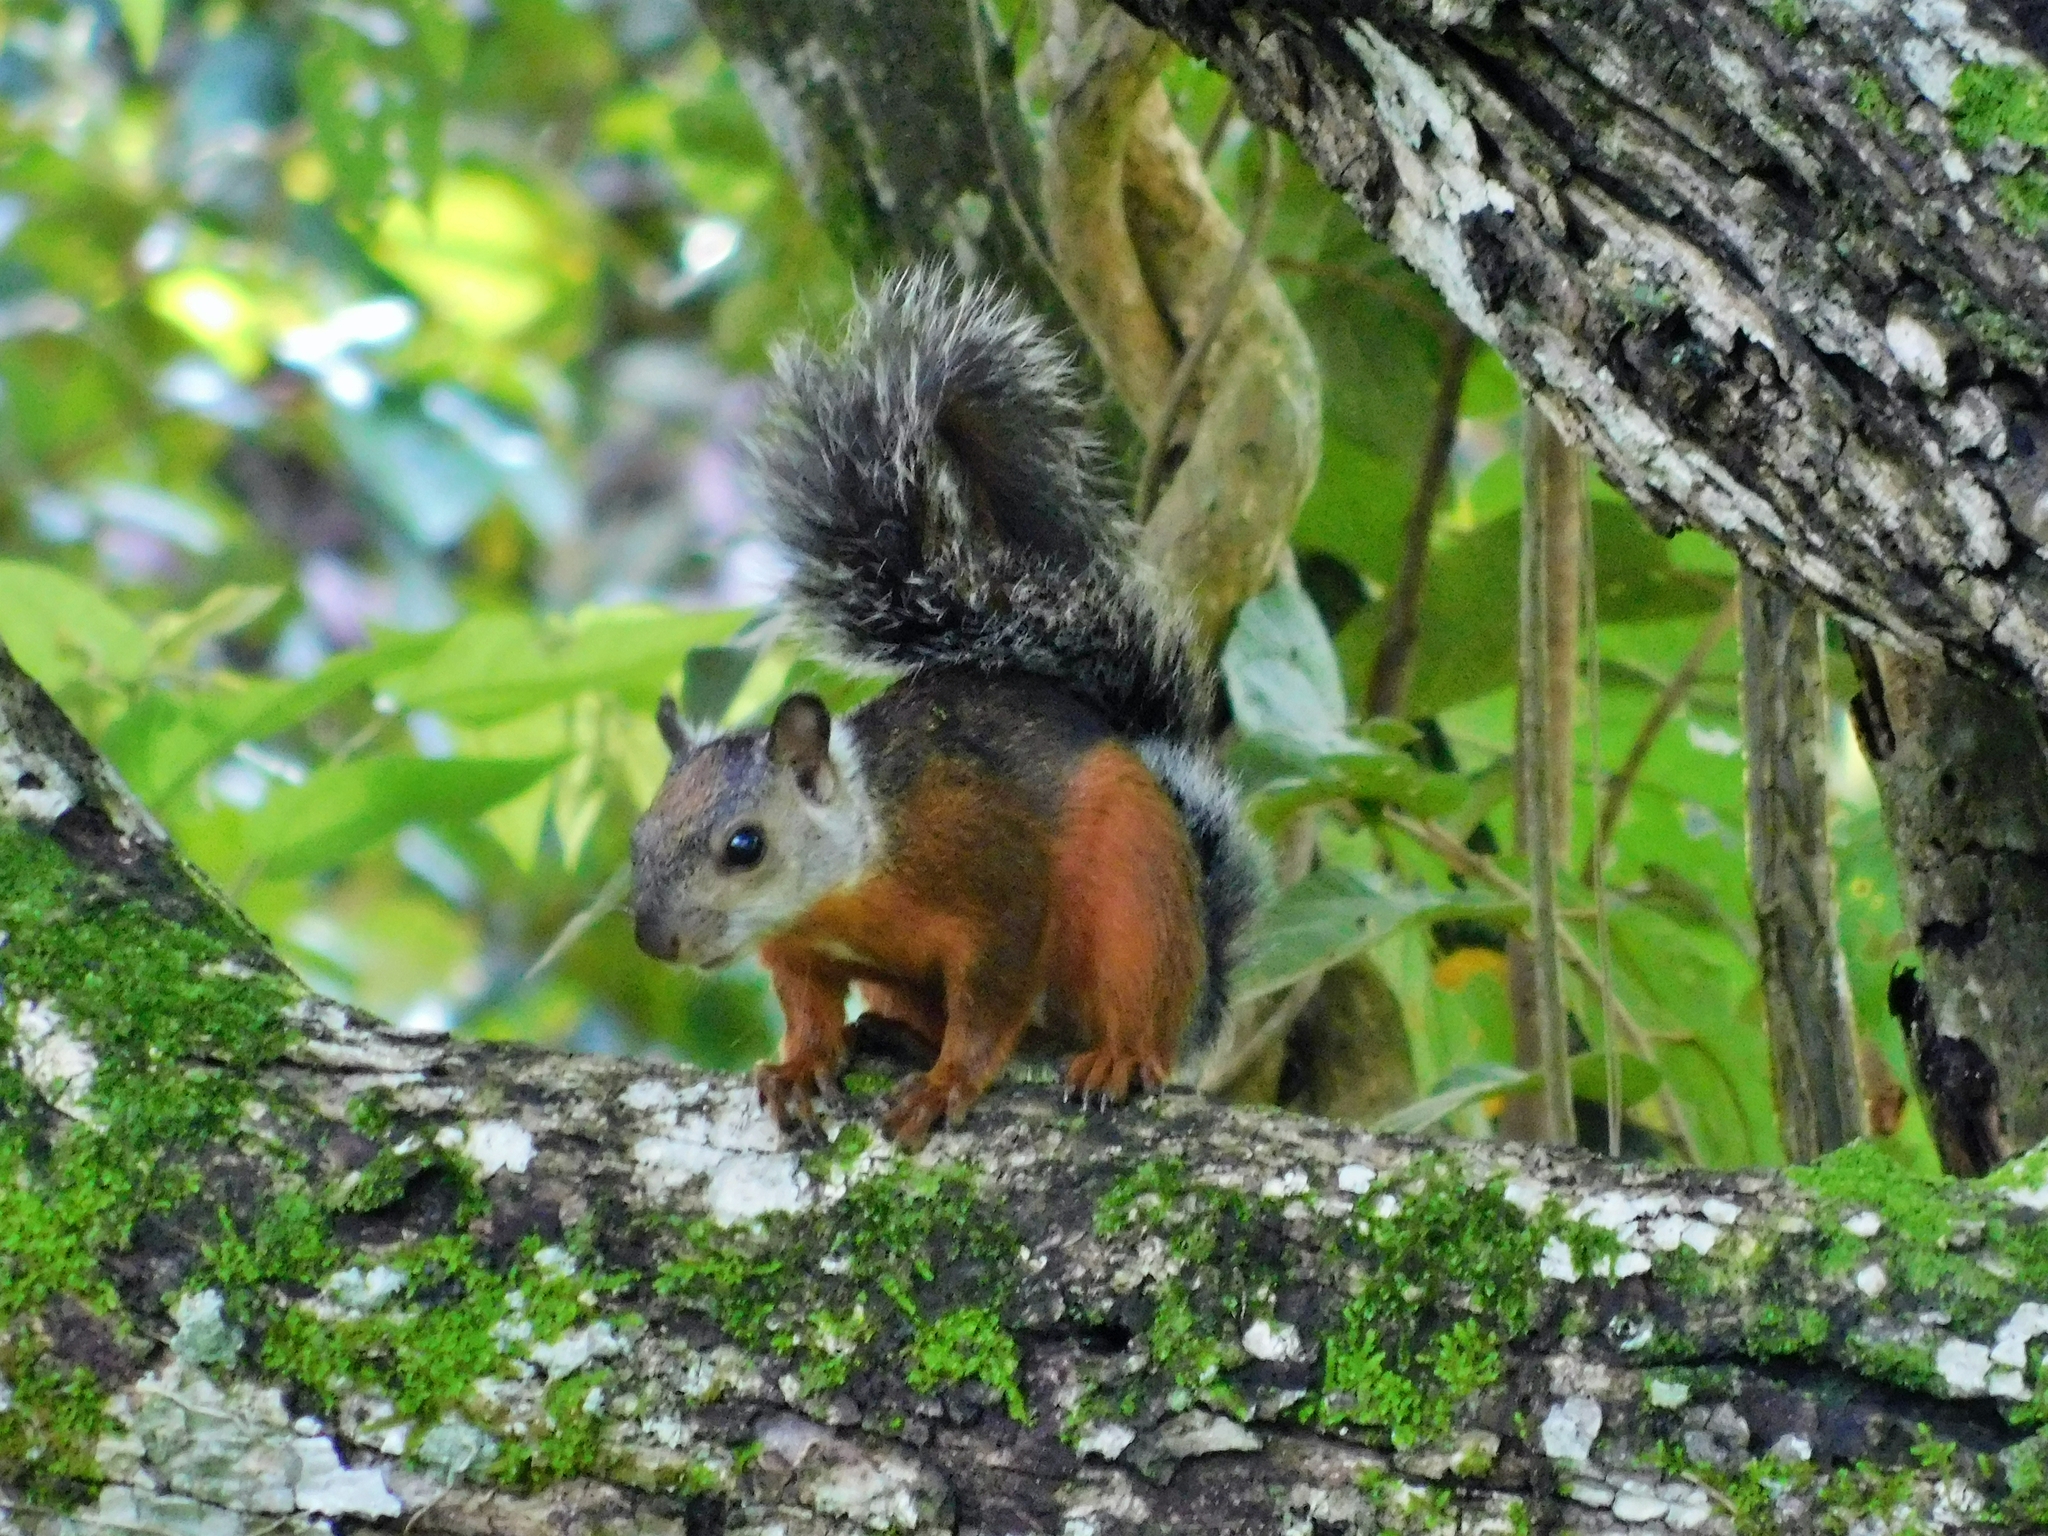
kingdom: Animalia
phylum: Chordata
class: Mammalia
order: Rodentia
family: Sciuridae
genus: Sciurus
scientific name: Sciurus variegatoides
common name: Variegated squirrel
